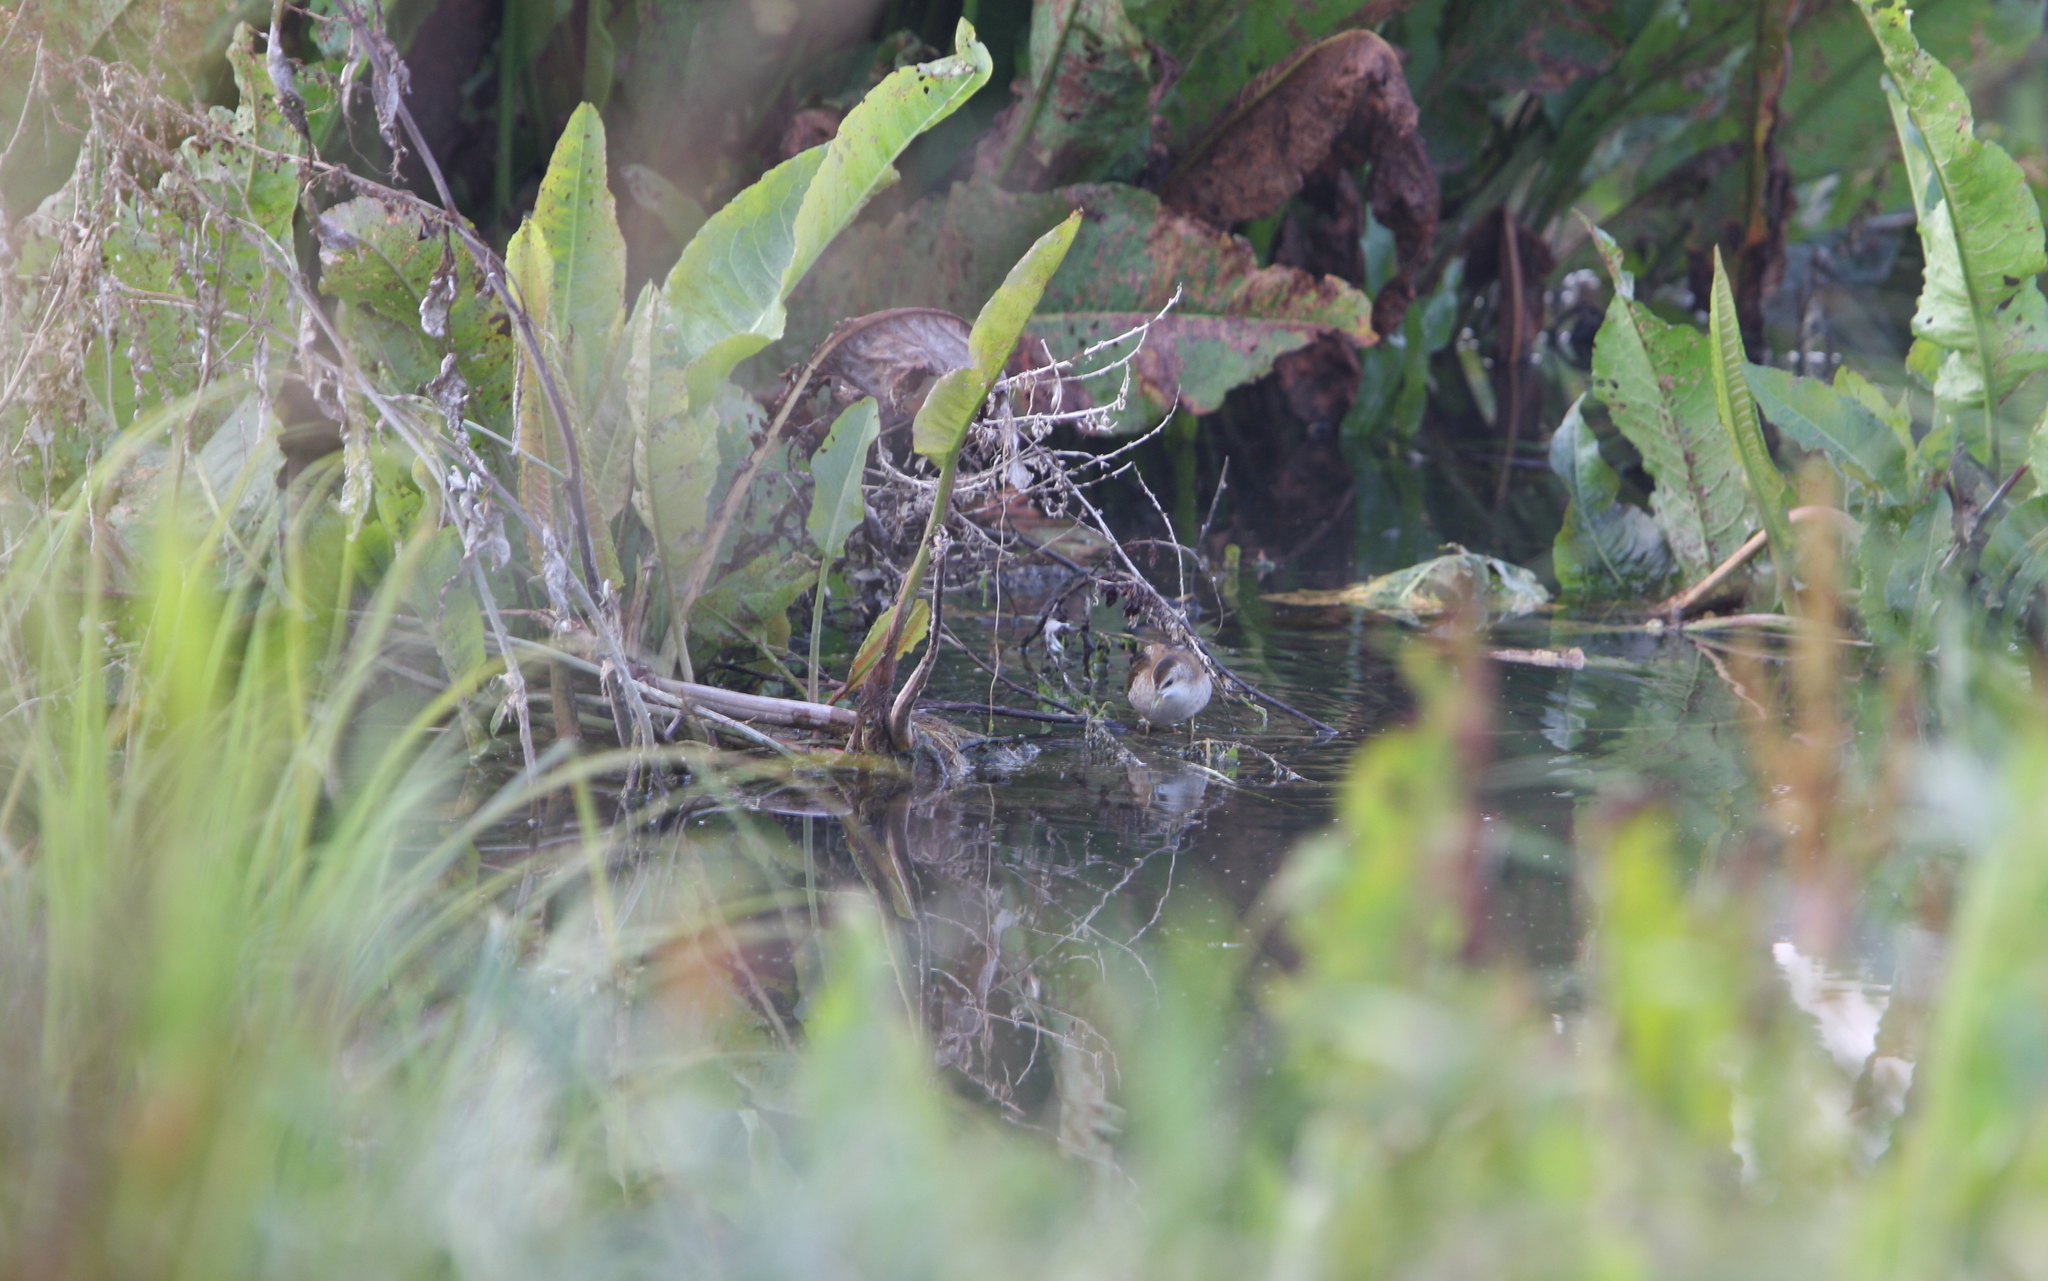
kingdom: Animalia
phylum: Chordata
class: Aves
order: Gruiformes
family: Rallidae
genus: Porzana
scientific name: Porzana parva
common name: Little crake
